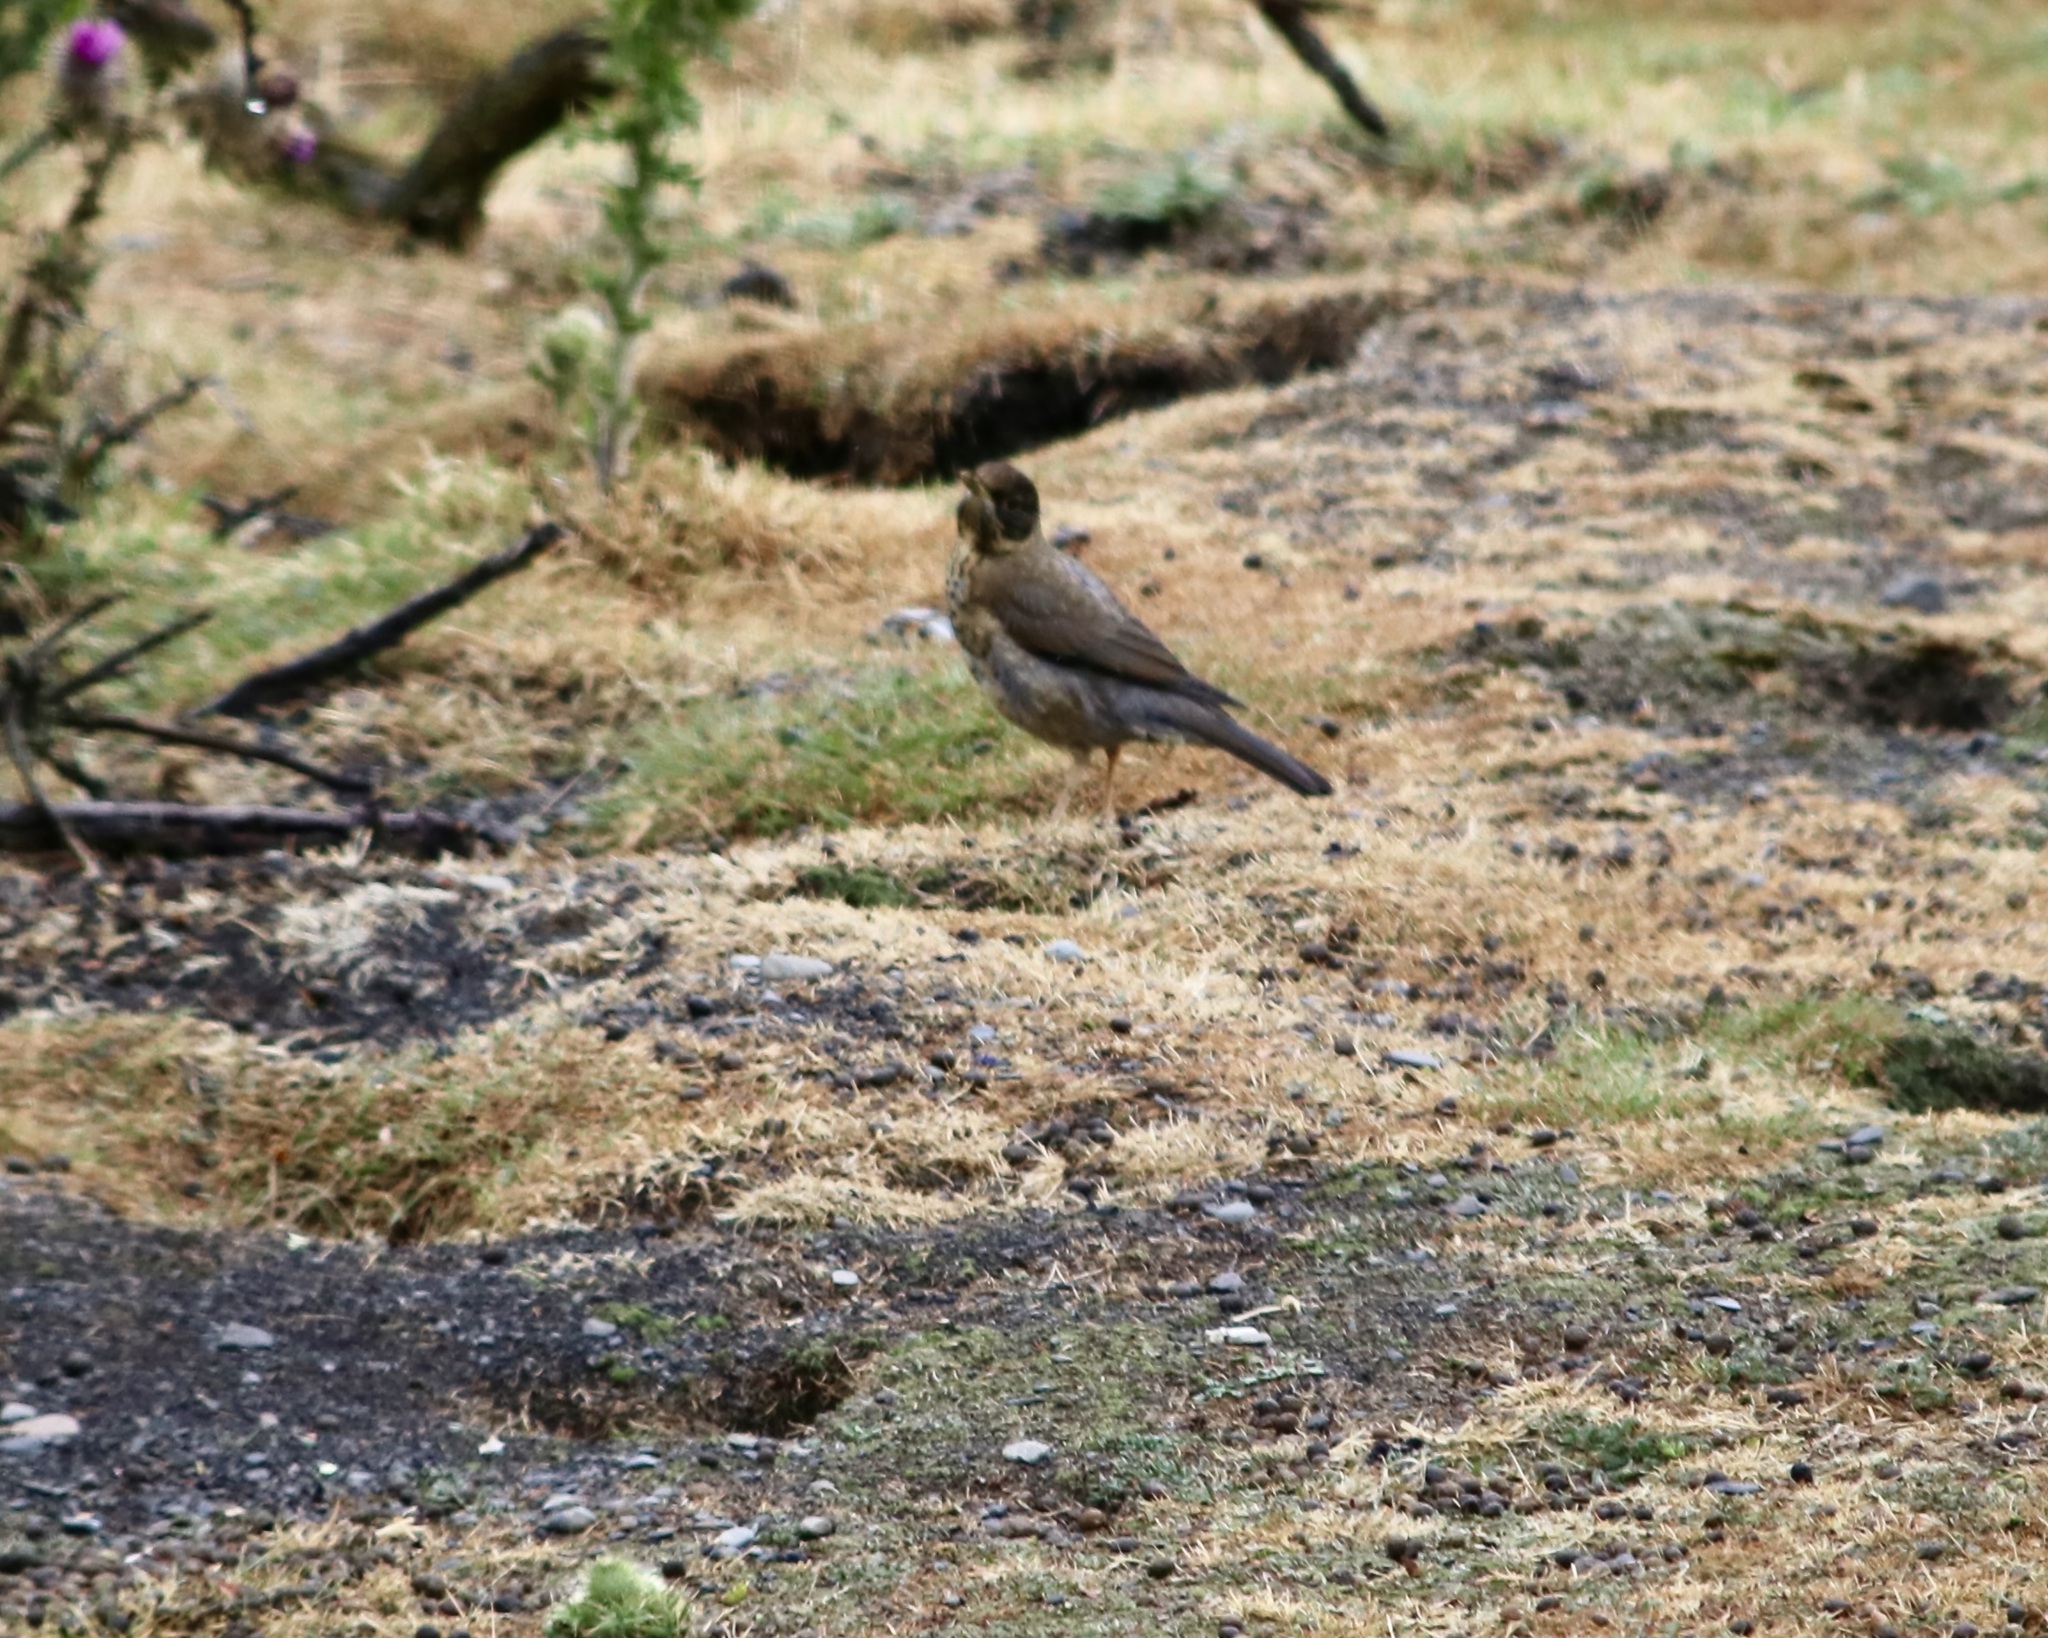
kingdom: Animalia
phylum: Chordata
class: Aves
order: Passeriformes
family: Turdidae
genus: Turdus
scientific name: Turdus falcklandii
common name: Austral thrush
